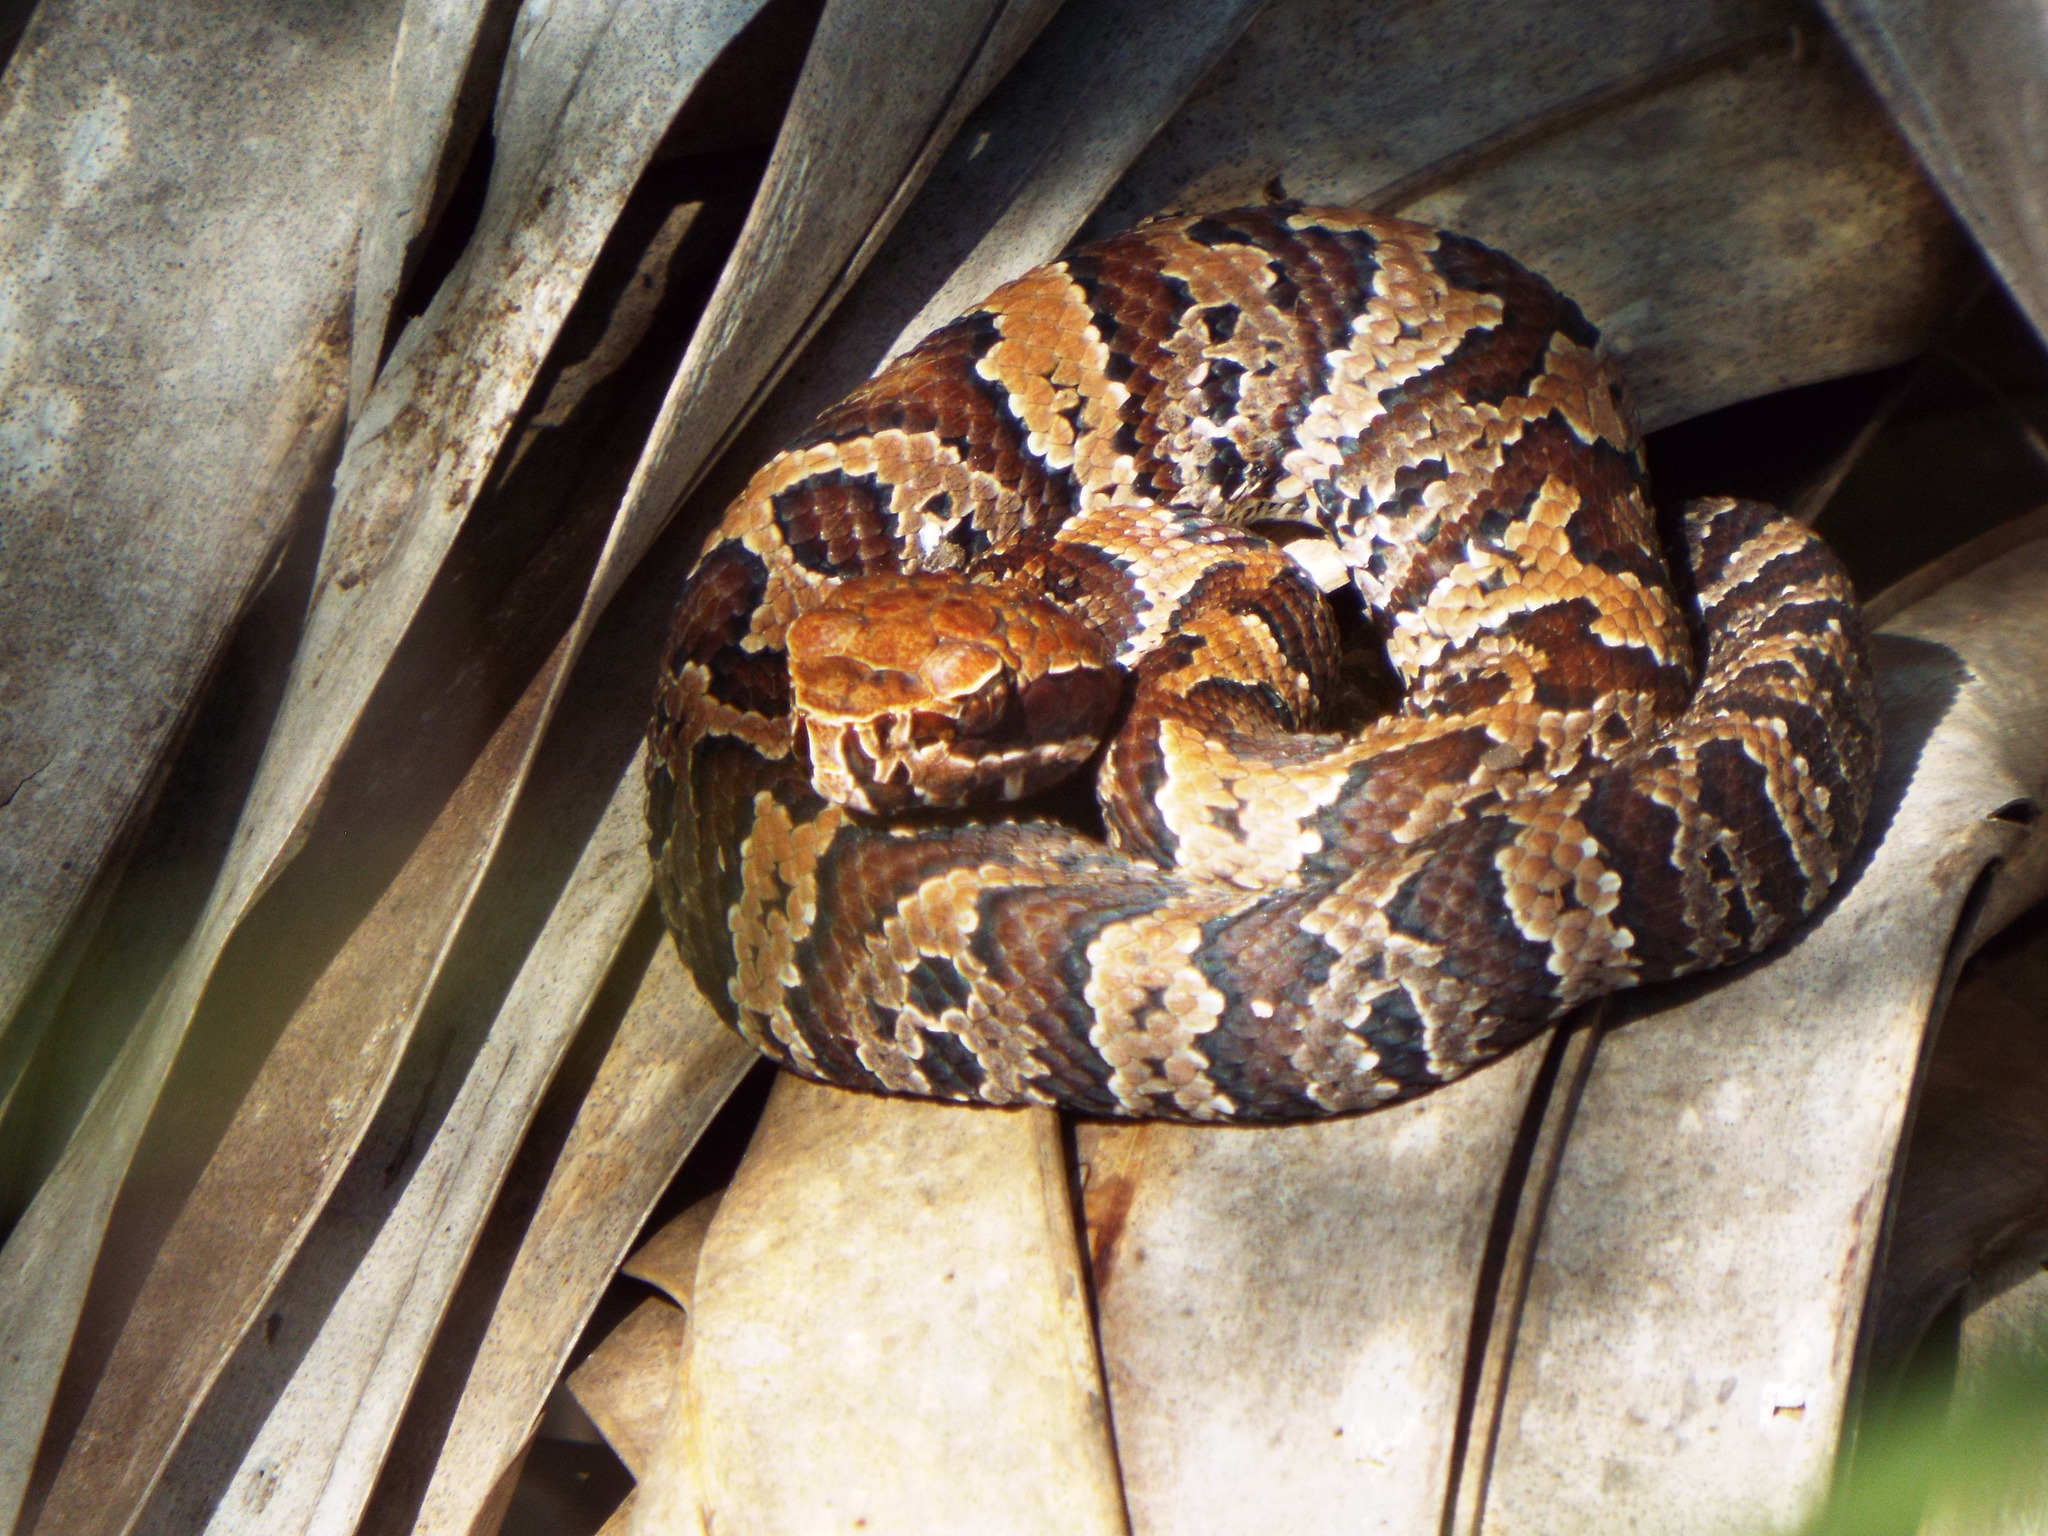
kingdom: Animalia
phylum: Chordata
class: Squamata
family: Viperidae
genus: Agkistrodon
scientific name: Agkistrodon conanti
